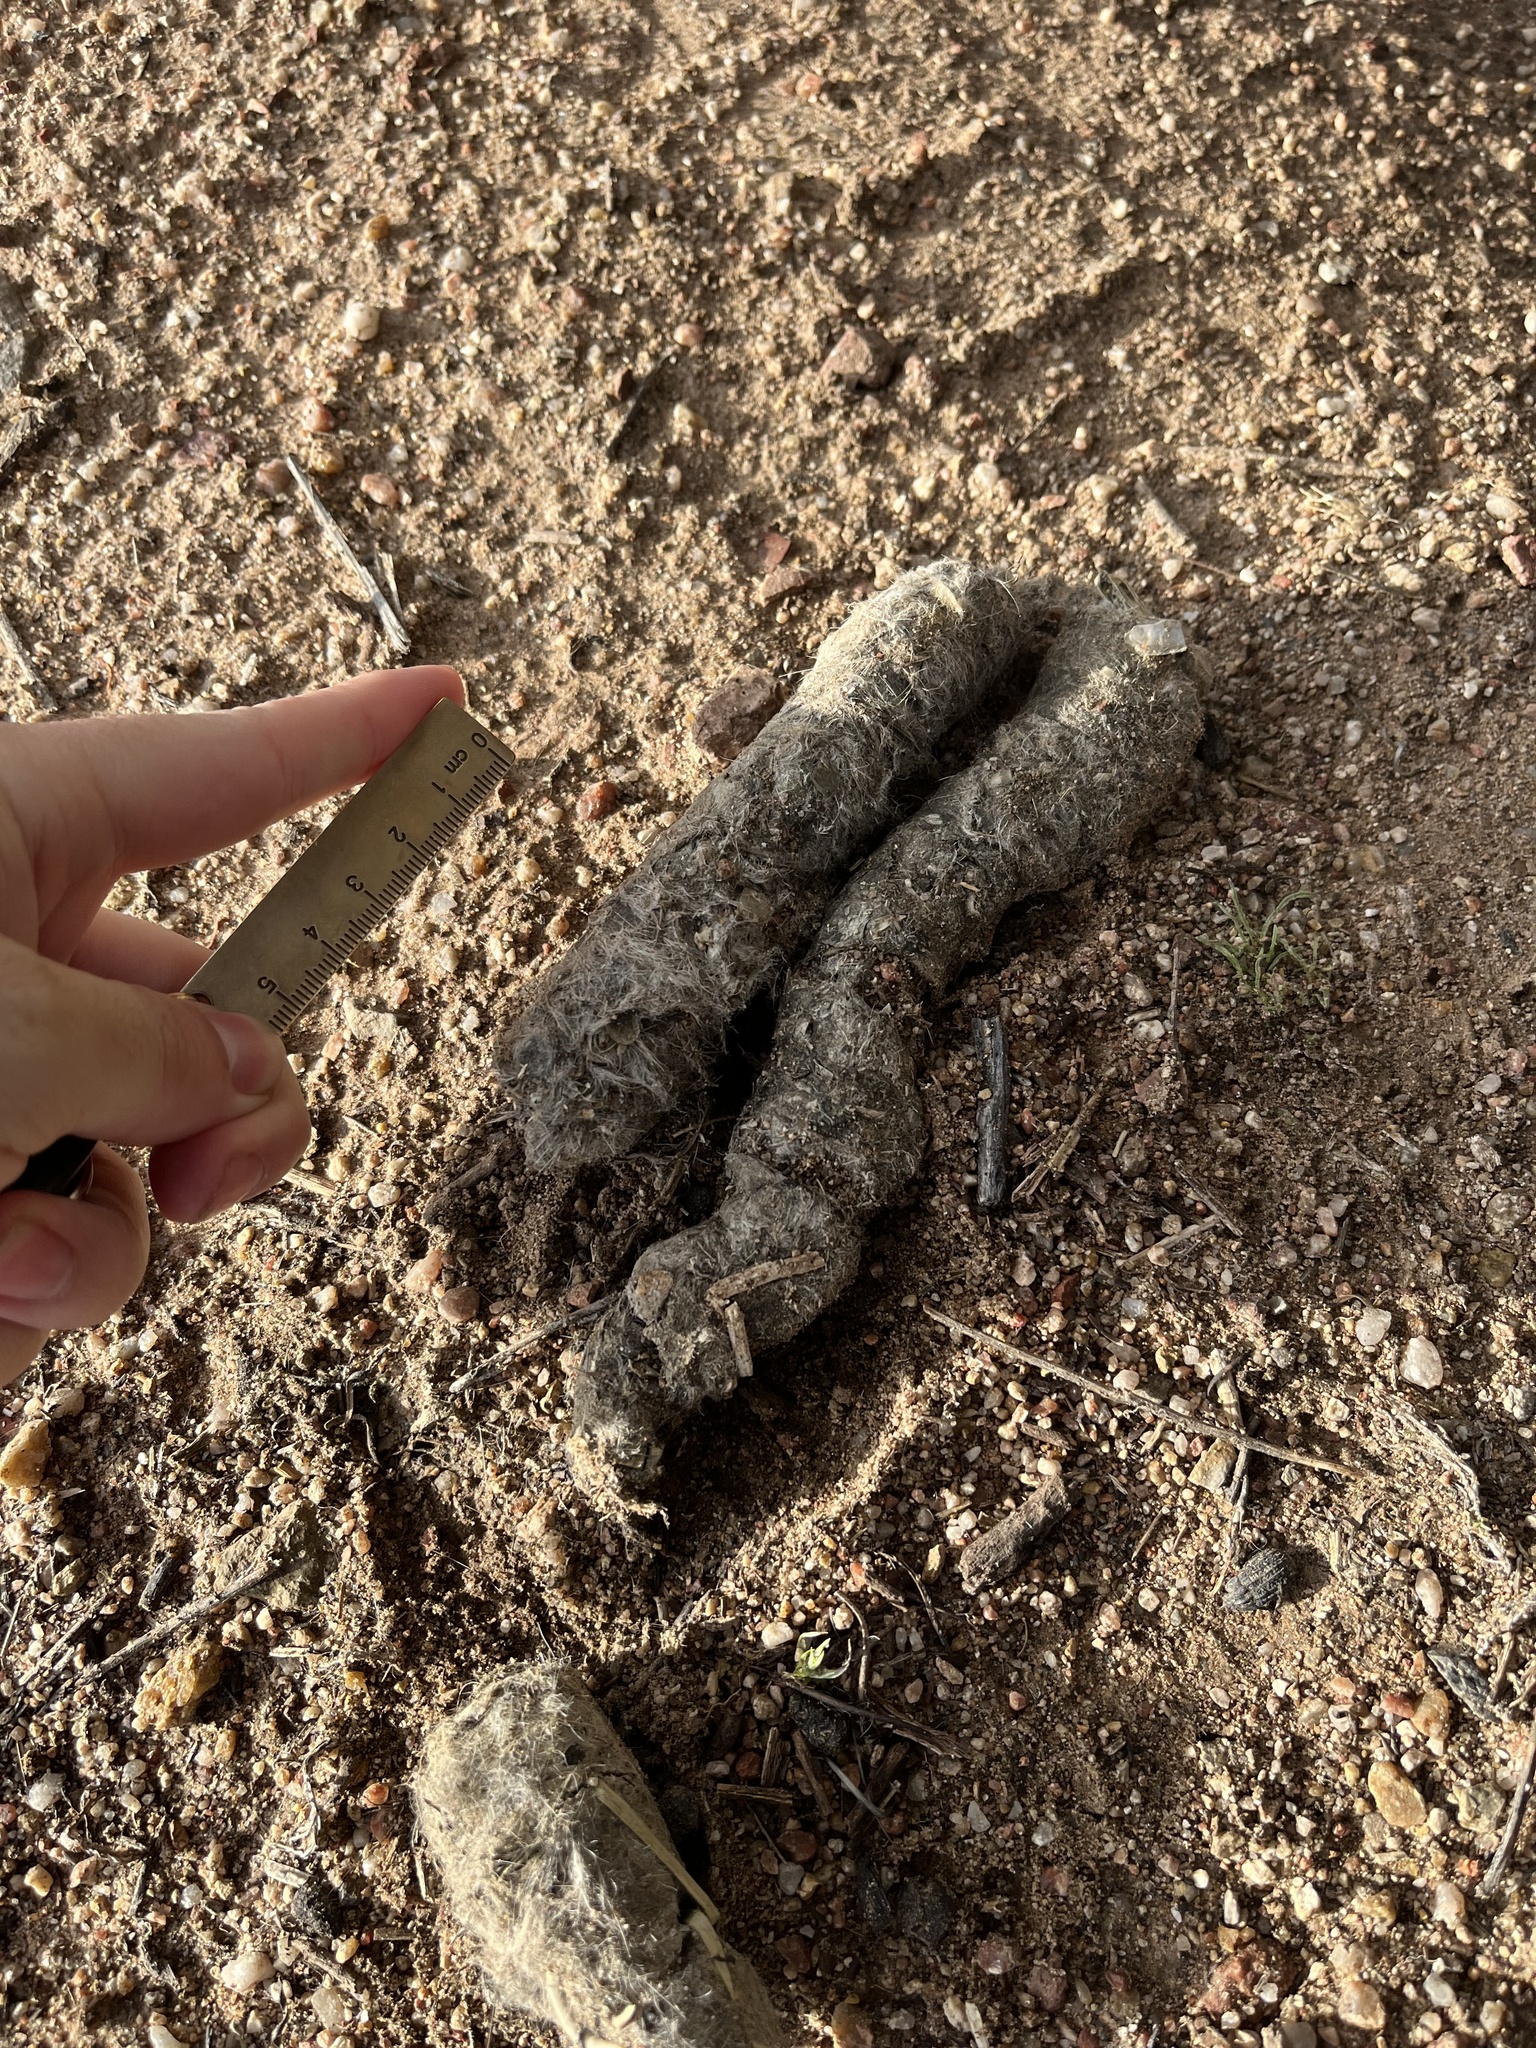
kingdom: Animalia
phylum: Chordata
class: Mammalia
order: Carnivora
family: Felidae
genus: Puma
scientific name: Puma concolor
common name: Puma
